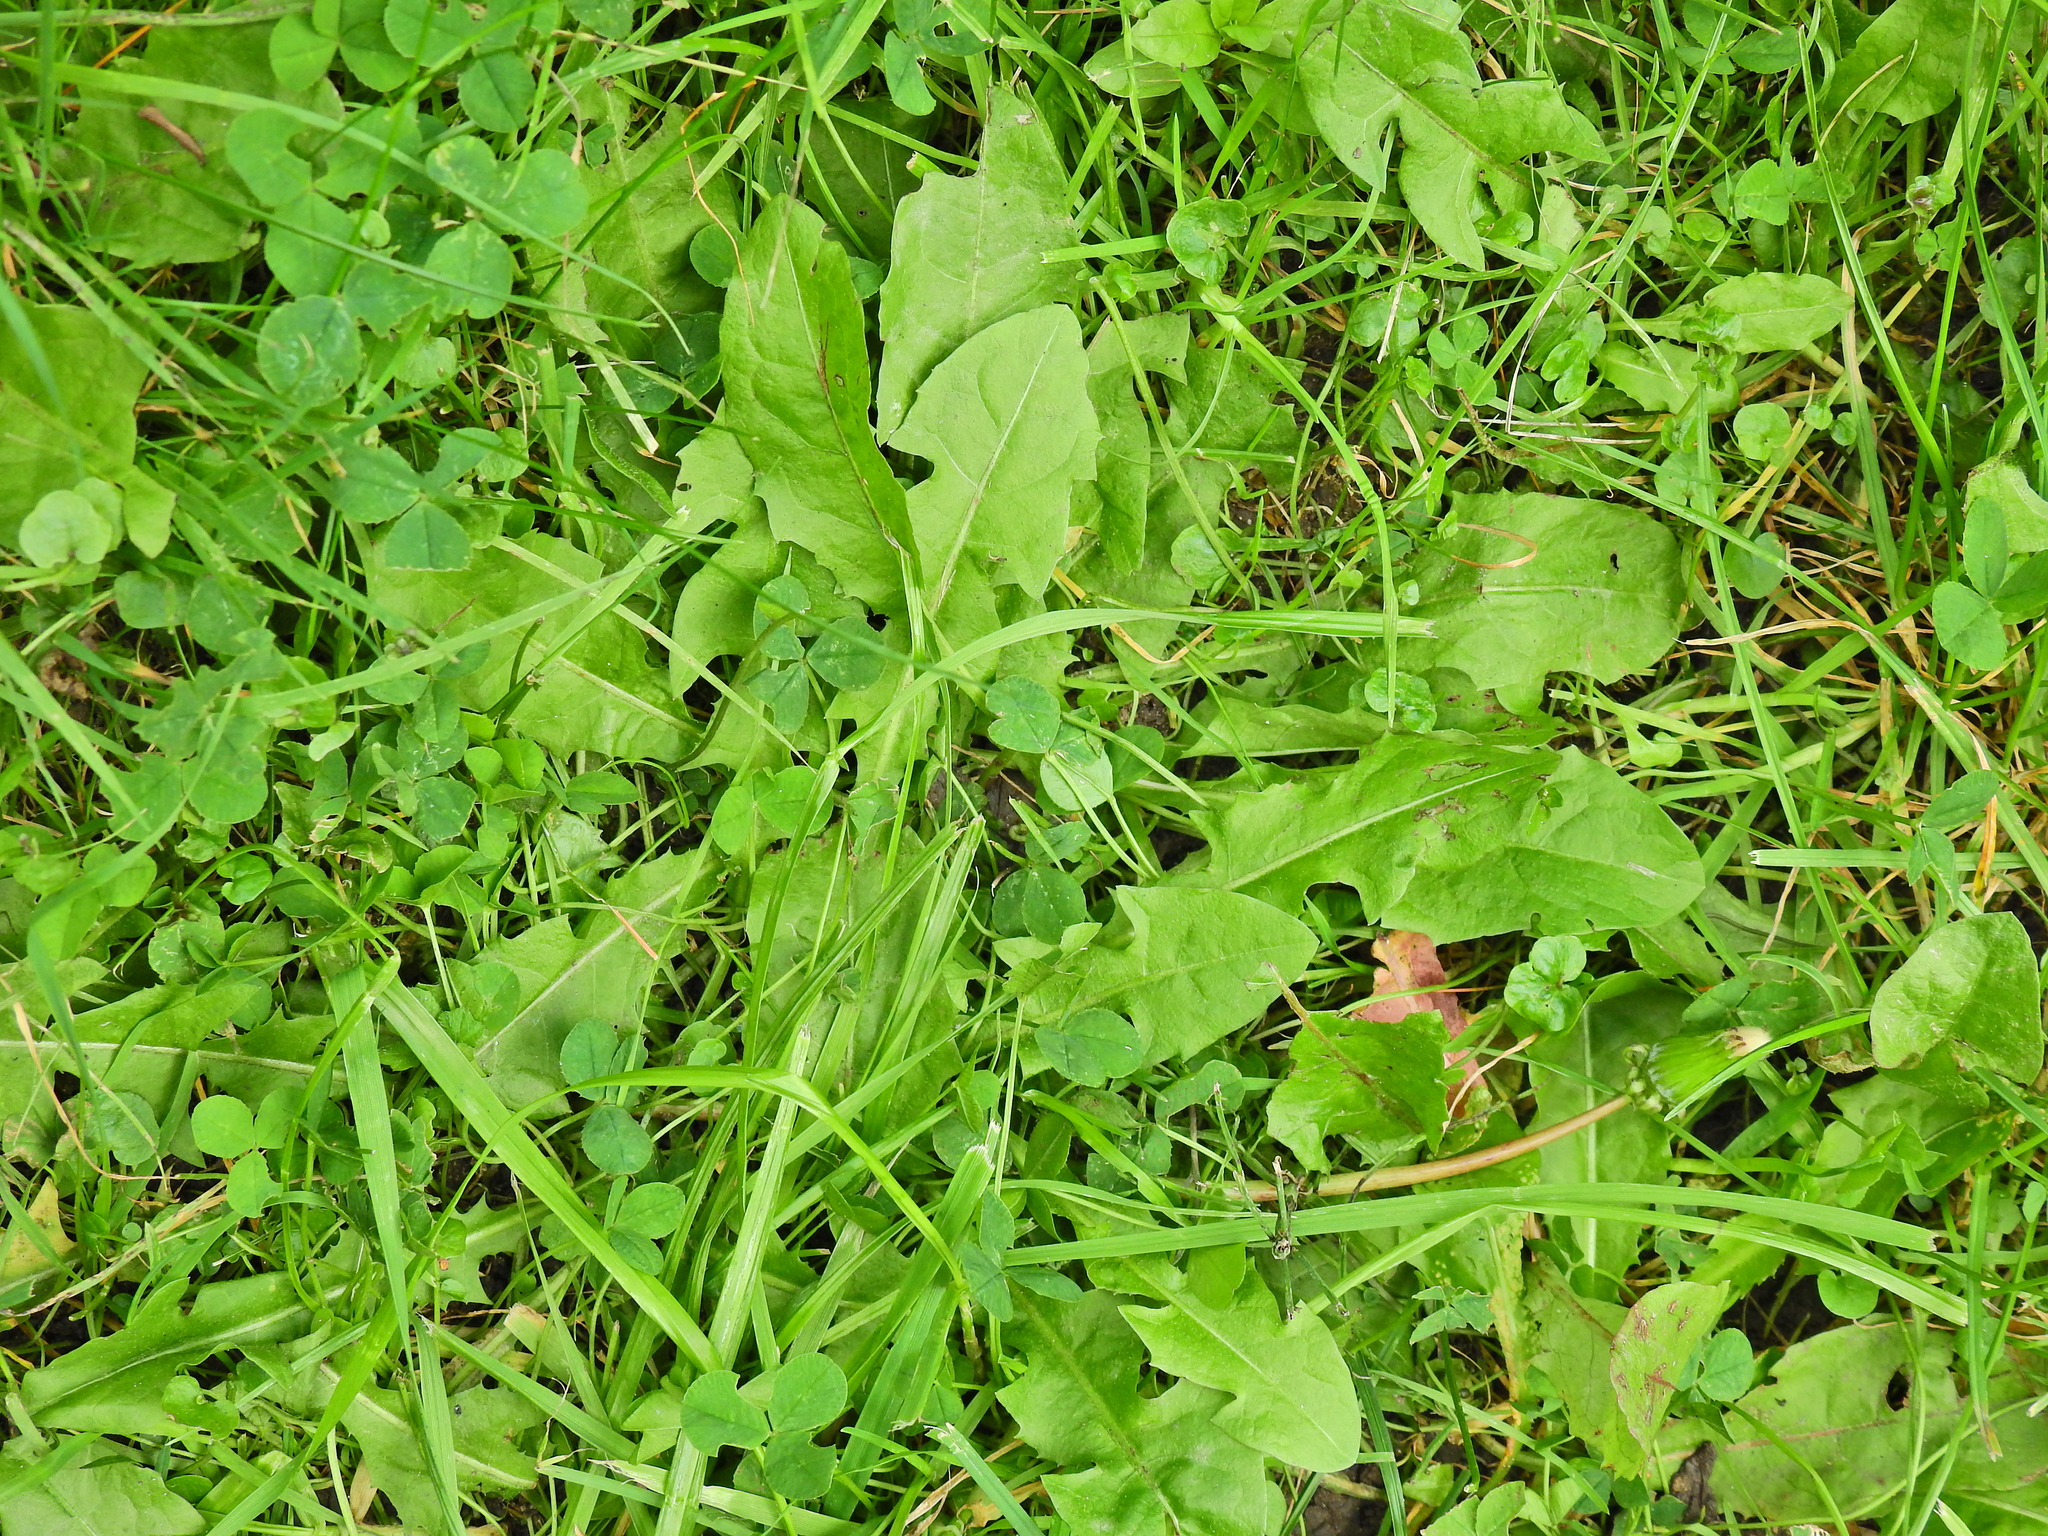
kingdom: Plantae
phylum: Tracheophyta
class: Magnoliopsida
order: Asterales
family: Asteraceae
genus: Taraxacum
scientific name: Taraxacum officinale
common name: Common dandelion
